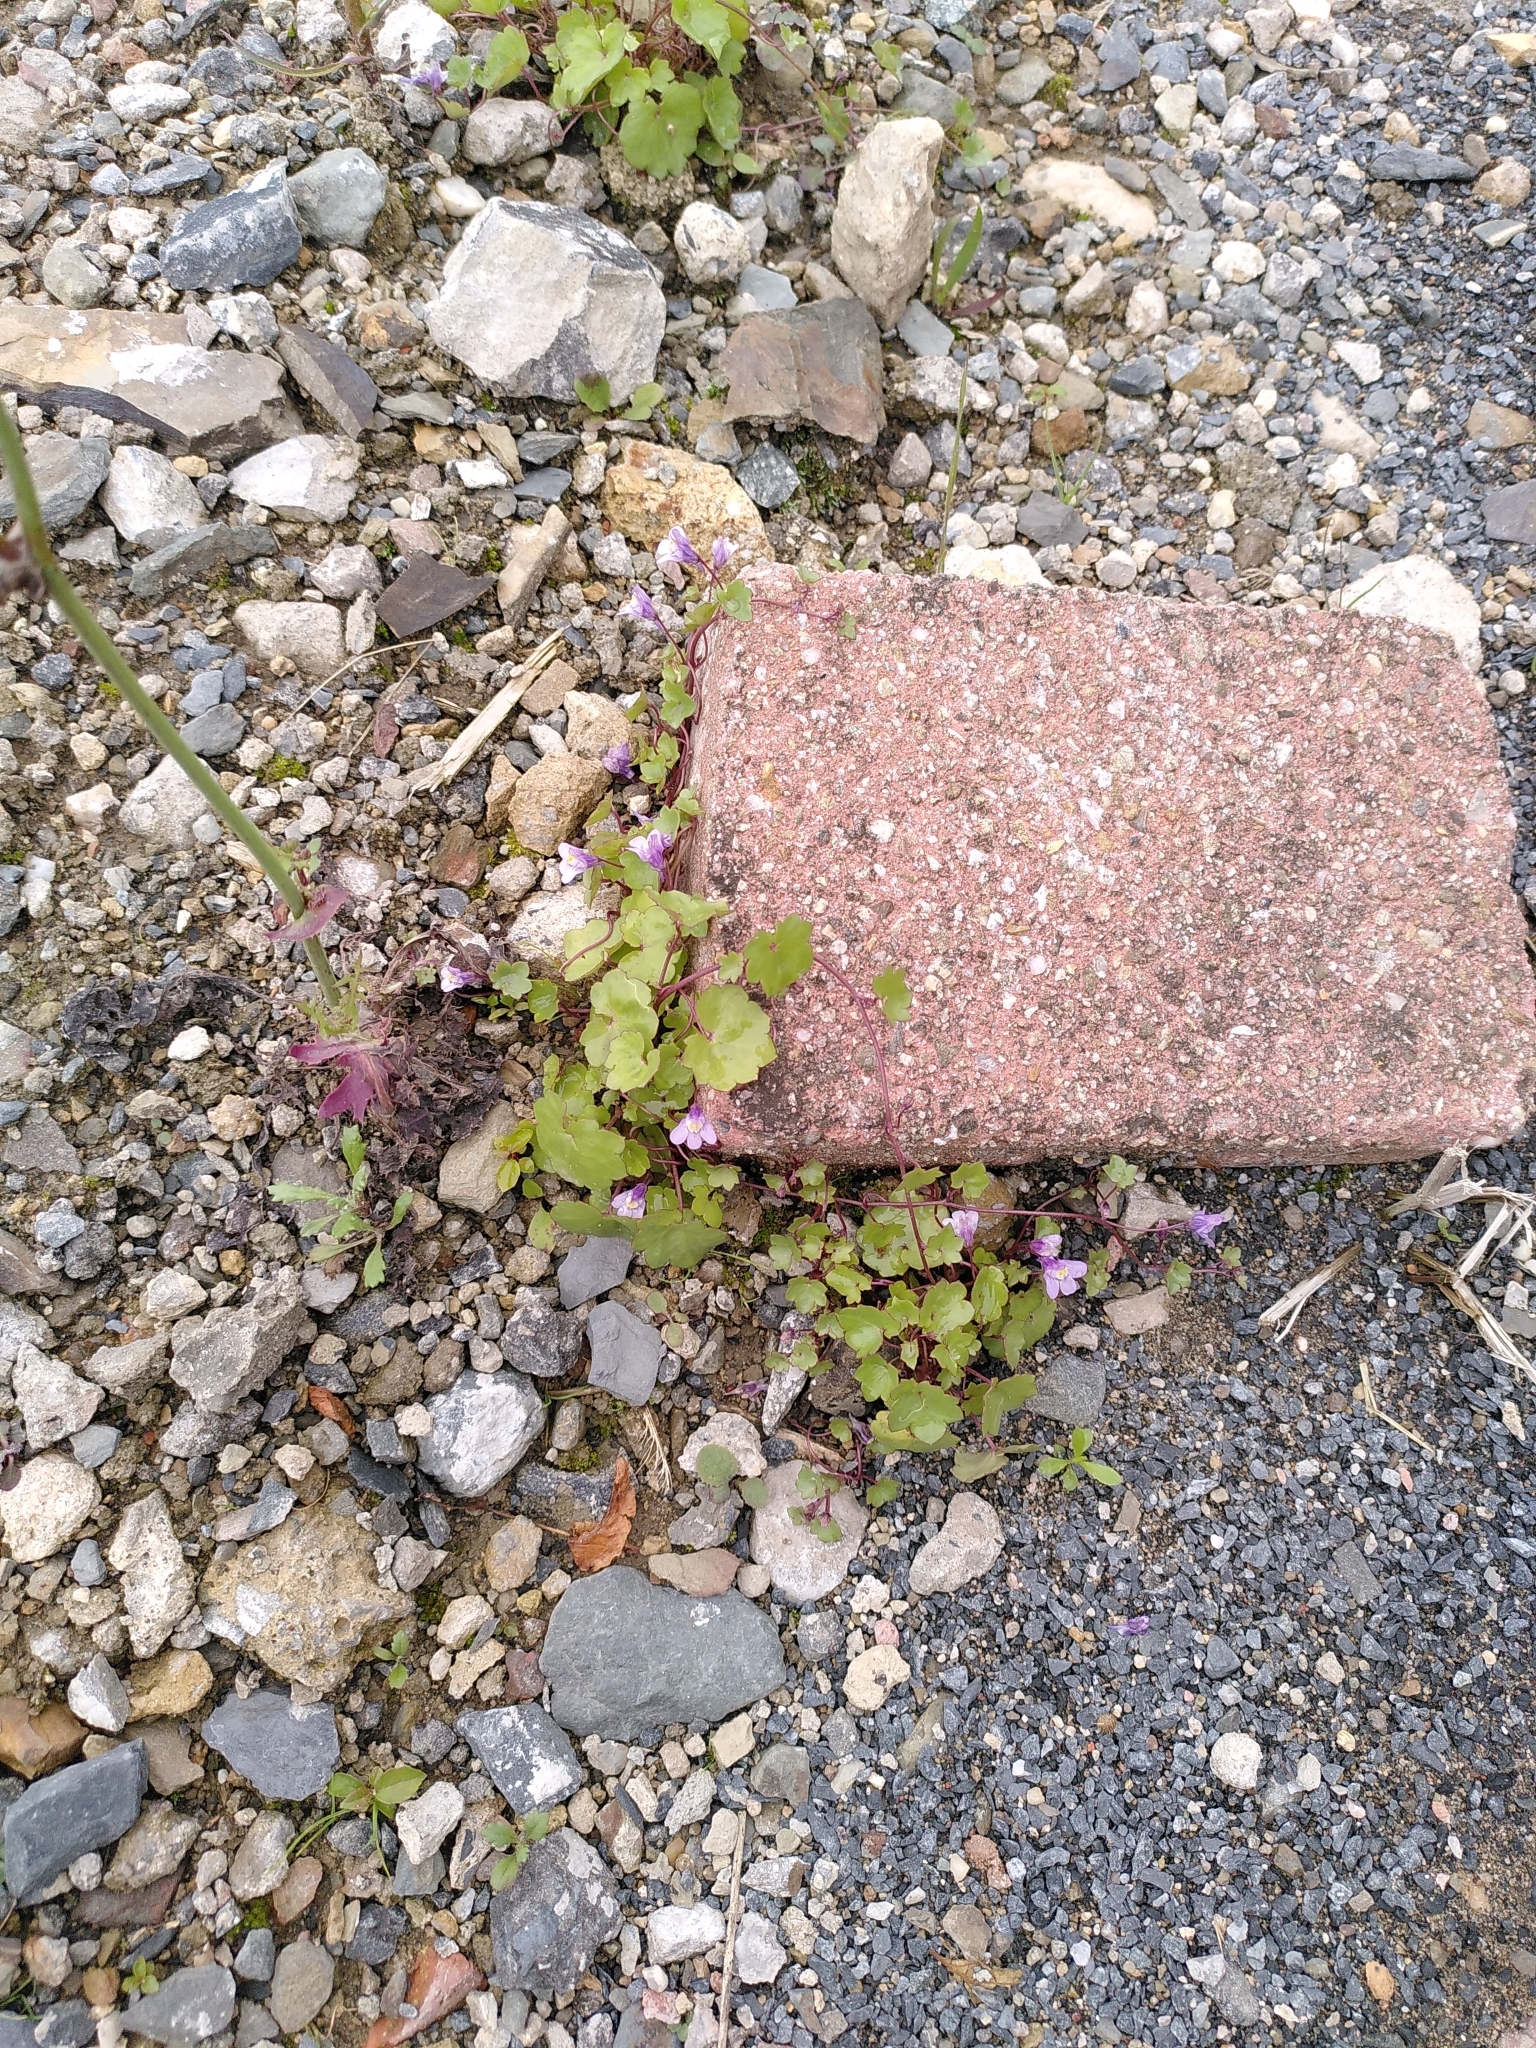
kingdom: Plantae
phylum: Tracheophyta
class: Magnoliopsida
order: Lamiales
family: Plantaginaceae
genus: Cymbalaria
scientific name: Cymbalaria muralis
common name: Ivy-leaved toadflax
